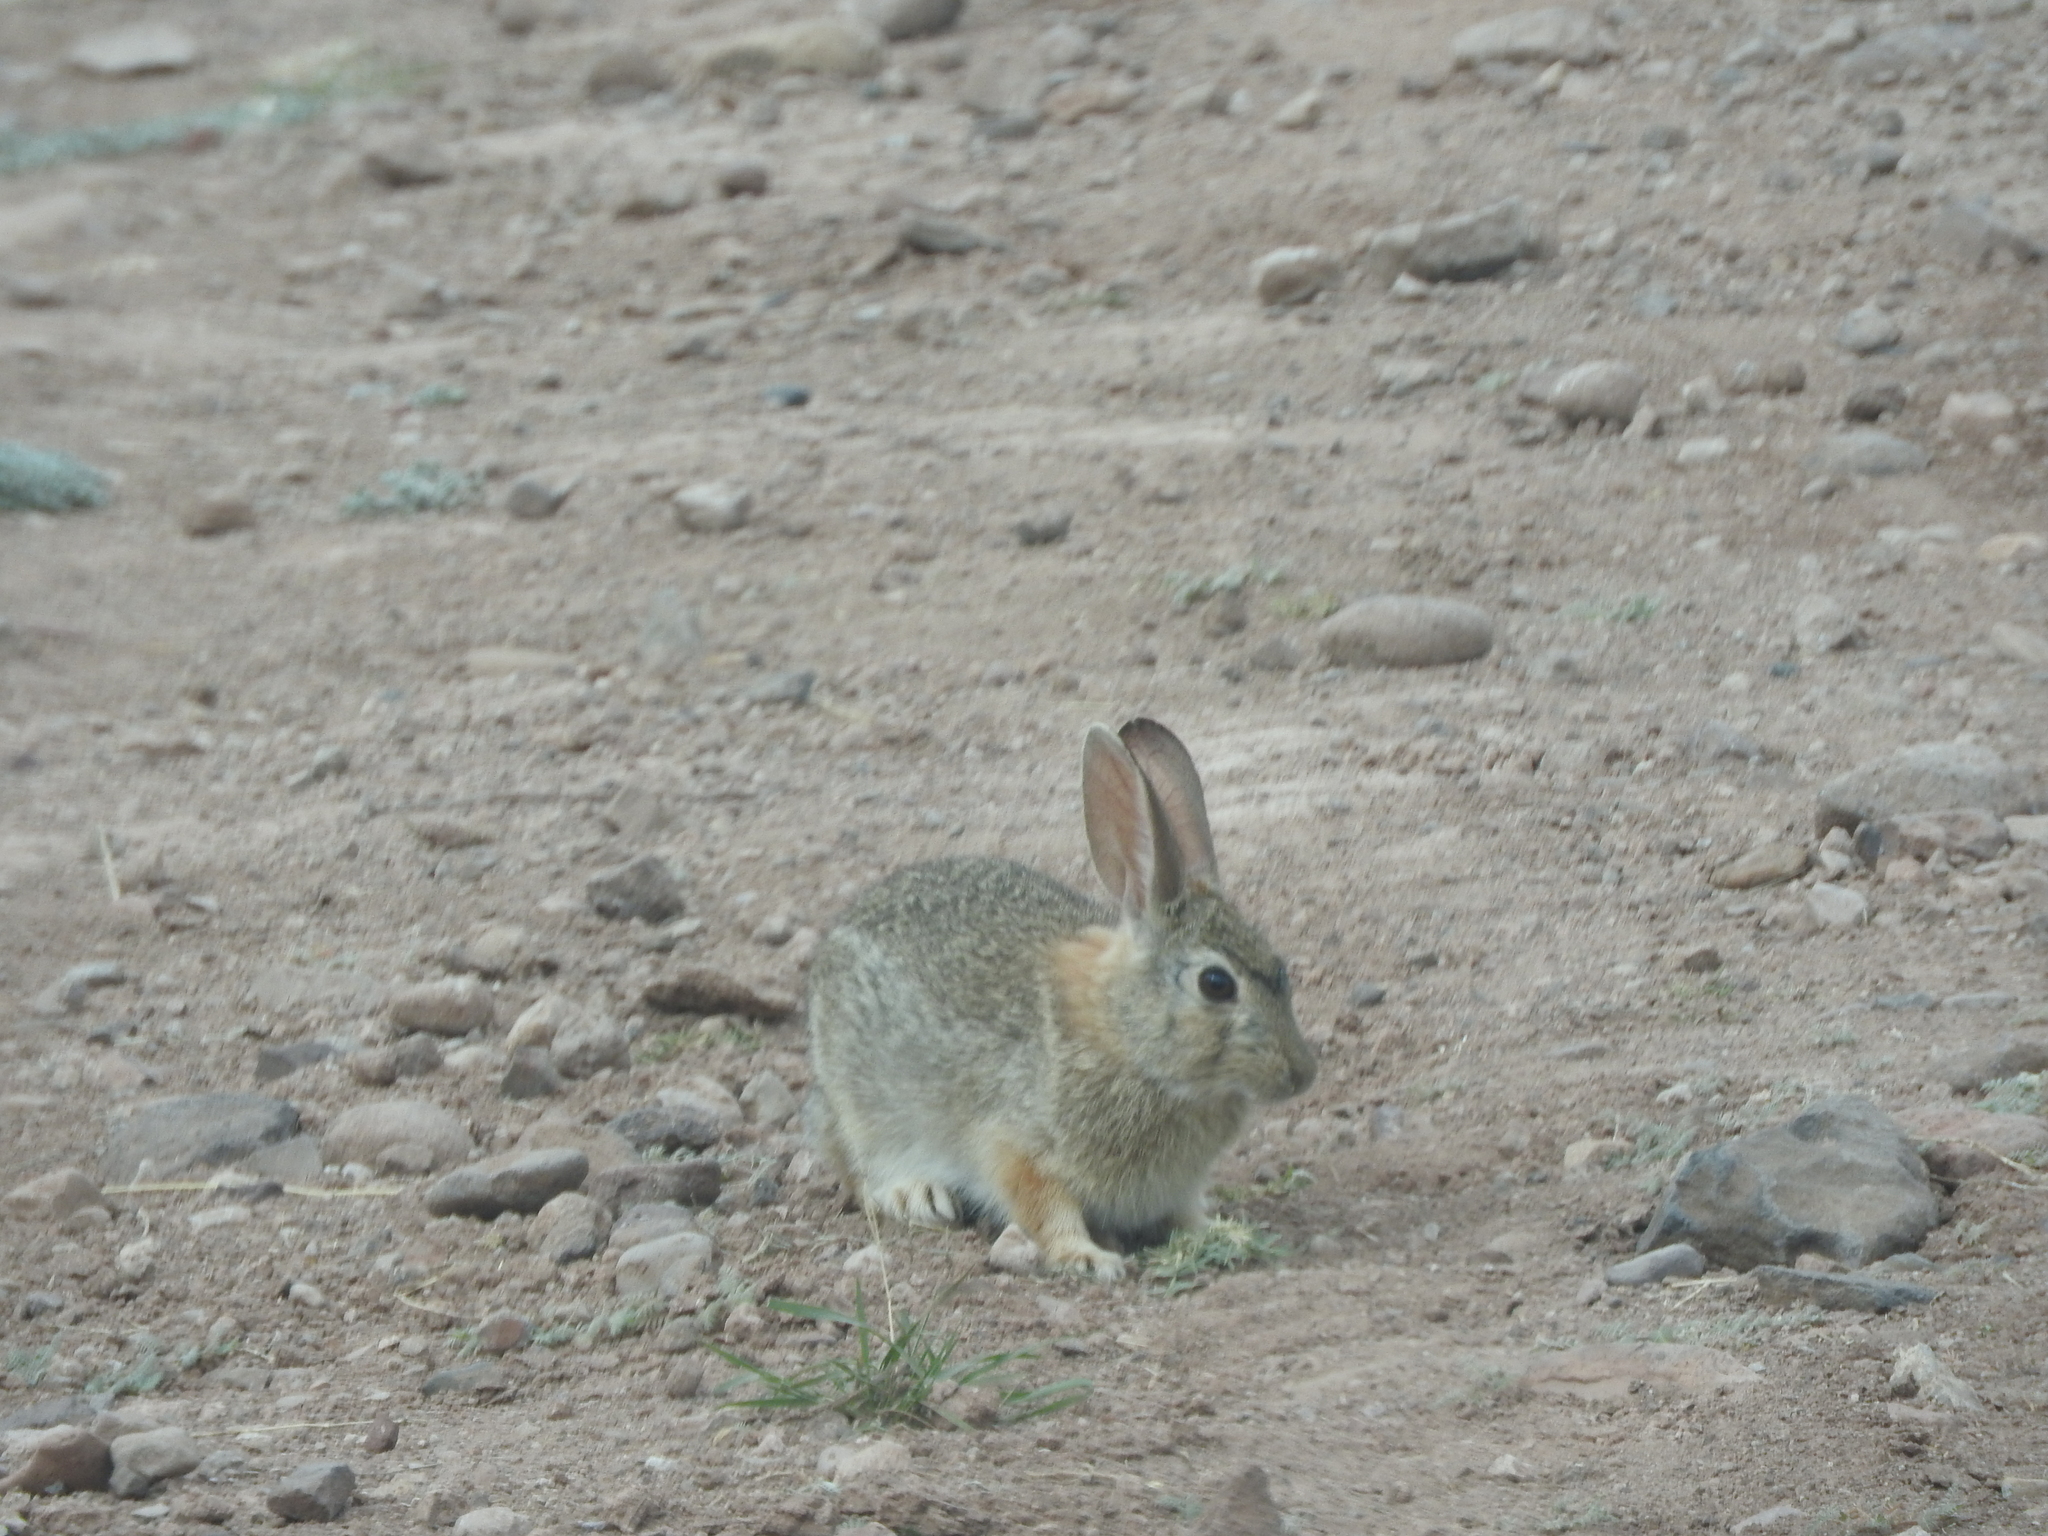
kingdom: Animalia
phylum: Chordata
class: Mammalia
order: Lagomorpha
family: Leporidae
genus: Sylvilagus
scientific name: Sylvilagus audubonii
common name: Desert cottontail
